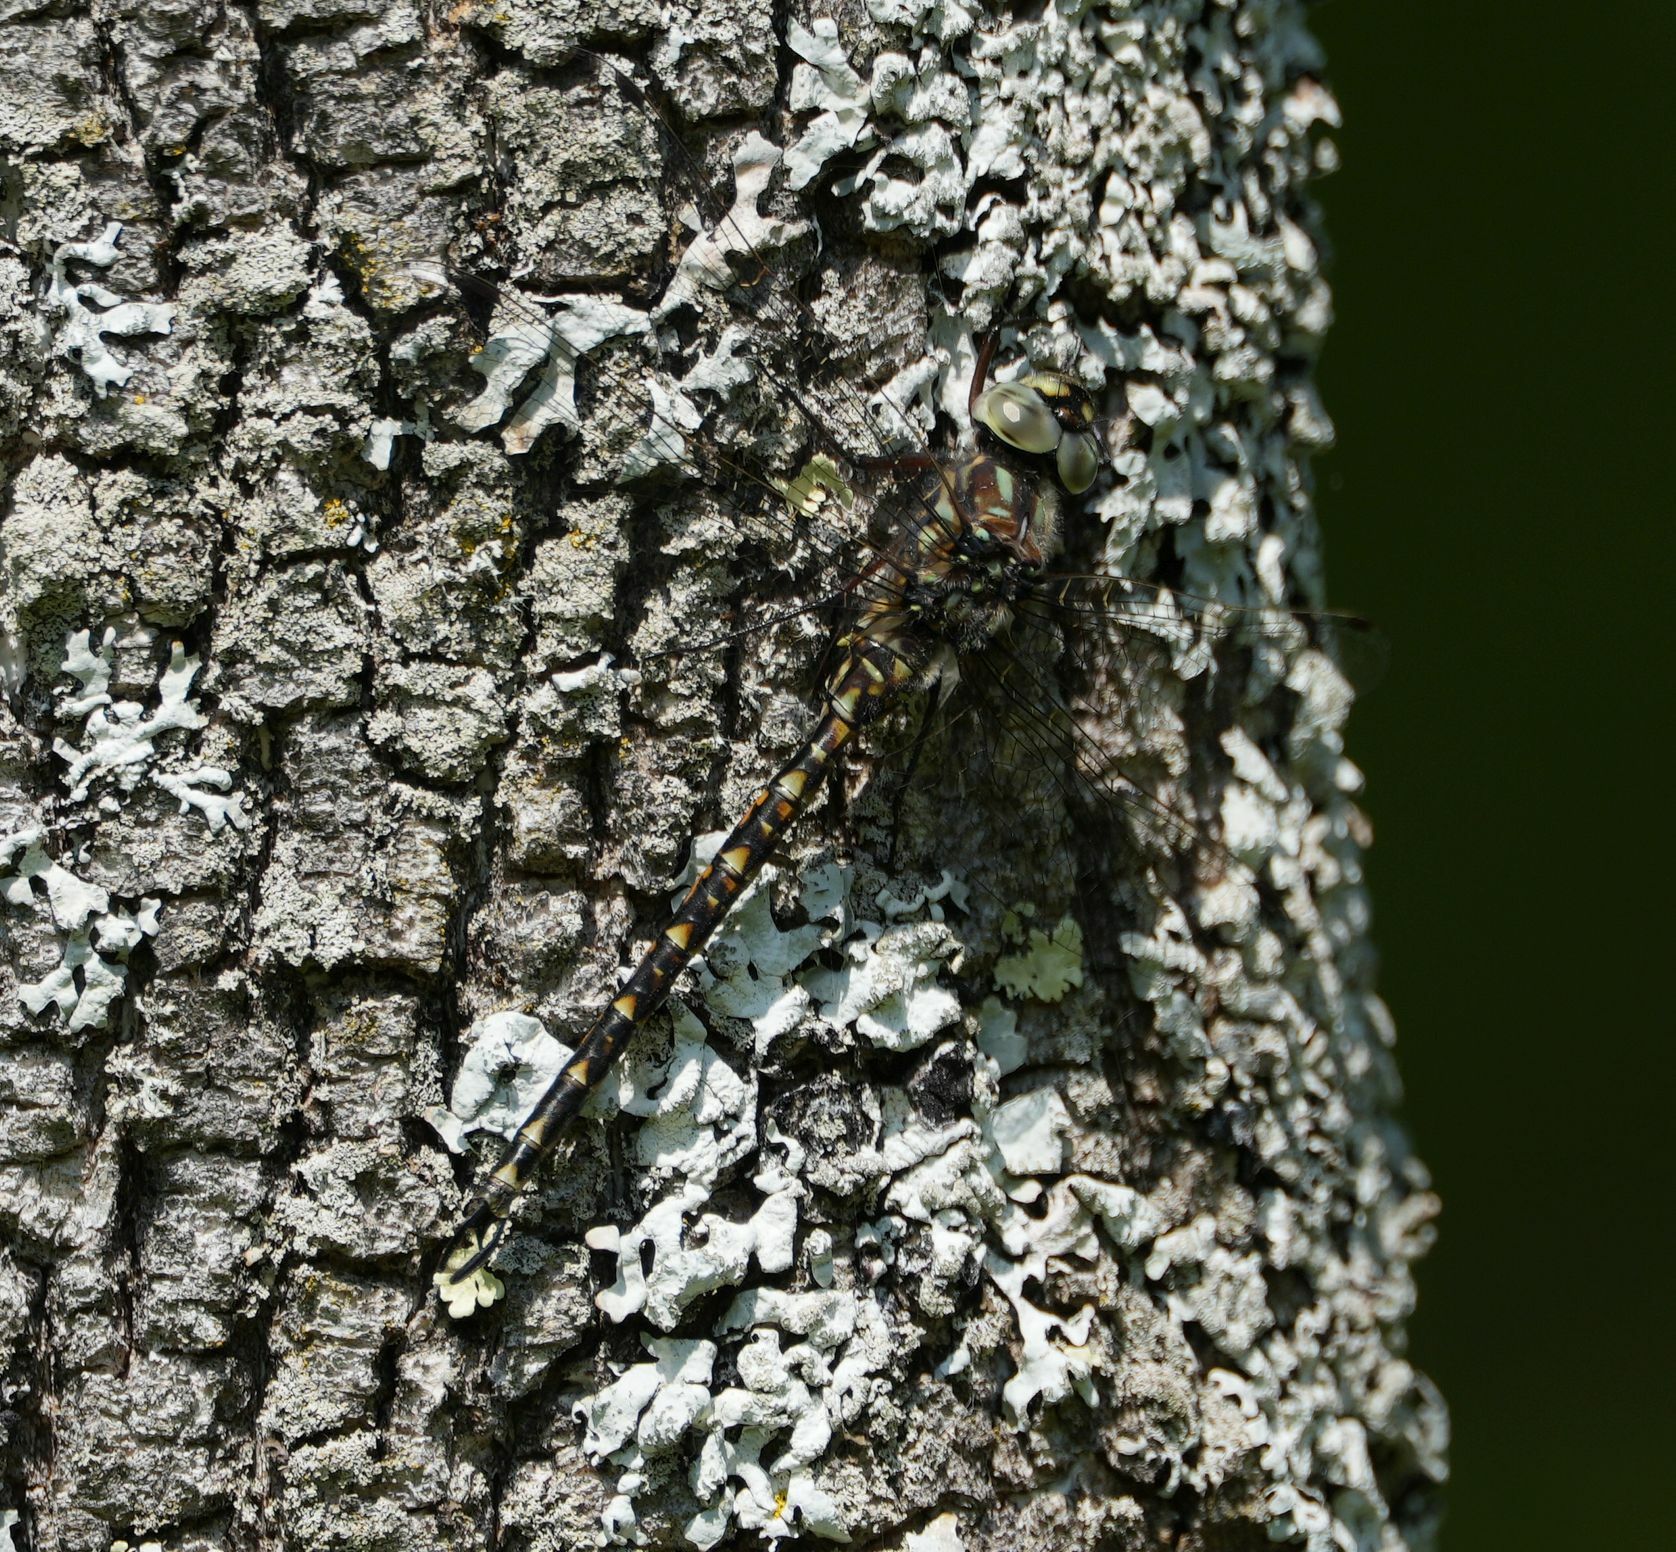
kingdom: Animalia
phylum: Arthropoda
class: Insecta
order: Odonata
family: Aeshnidae
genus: Gomphaeschna
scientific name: Gomphaeschna furcillata
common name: Harlequin darner
